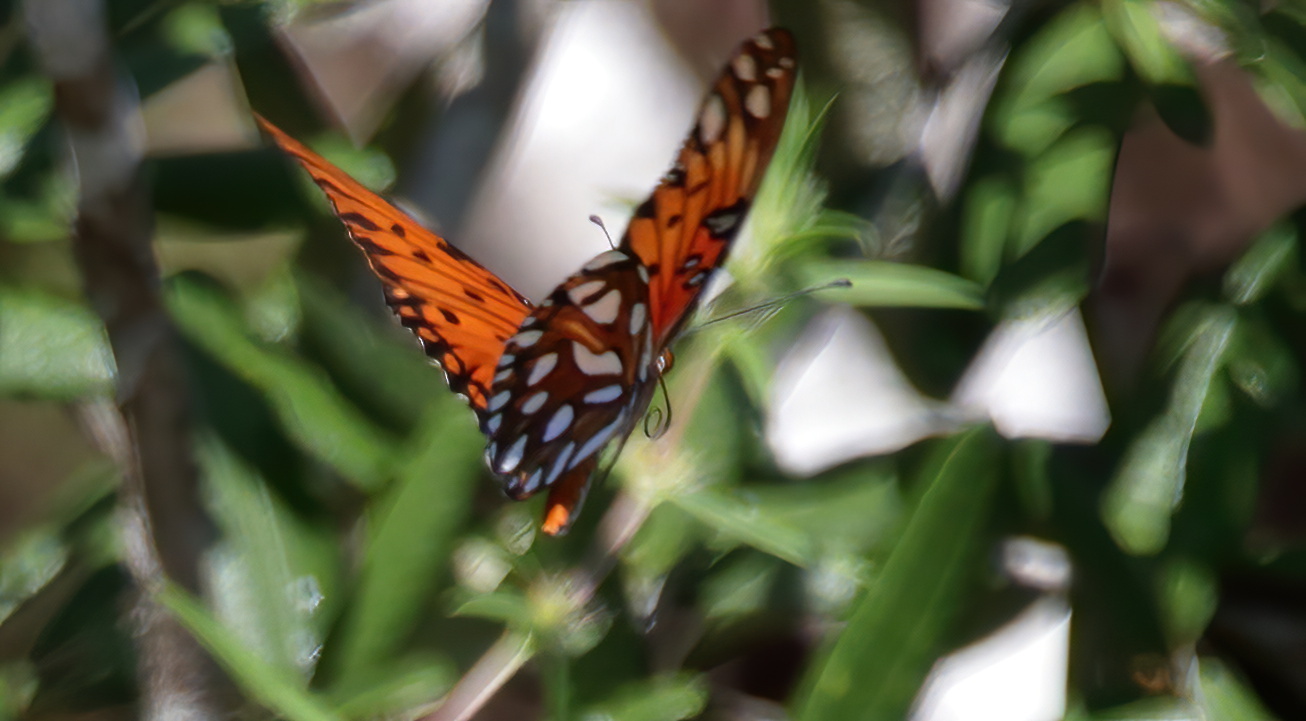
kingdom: Animalia
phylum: Arthropoda
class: Insecta
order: Lepidoptera
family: Nymphalidae
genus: Dione
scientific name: Dione vanillae
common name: Gulf fritillary
